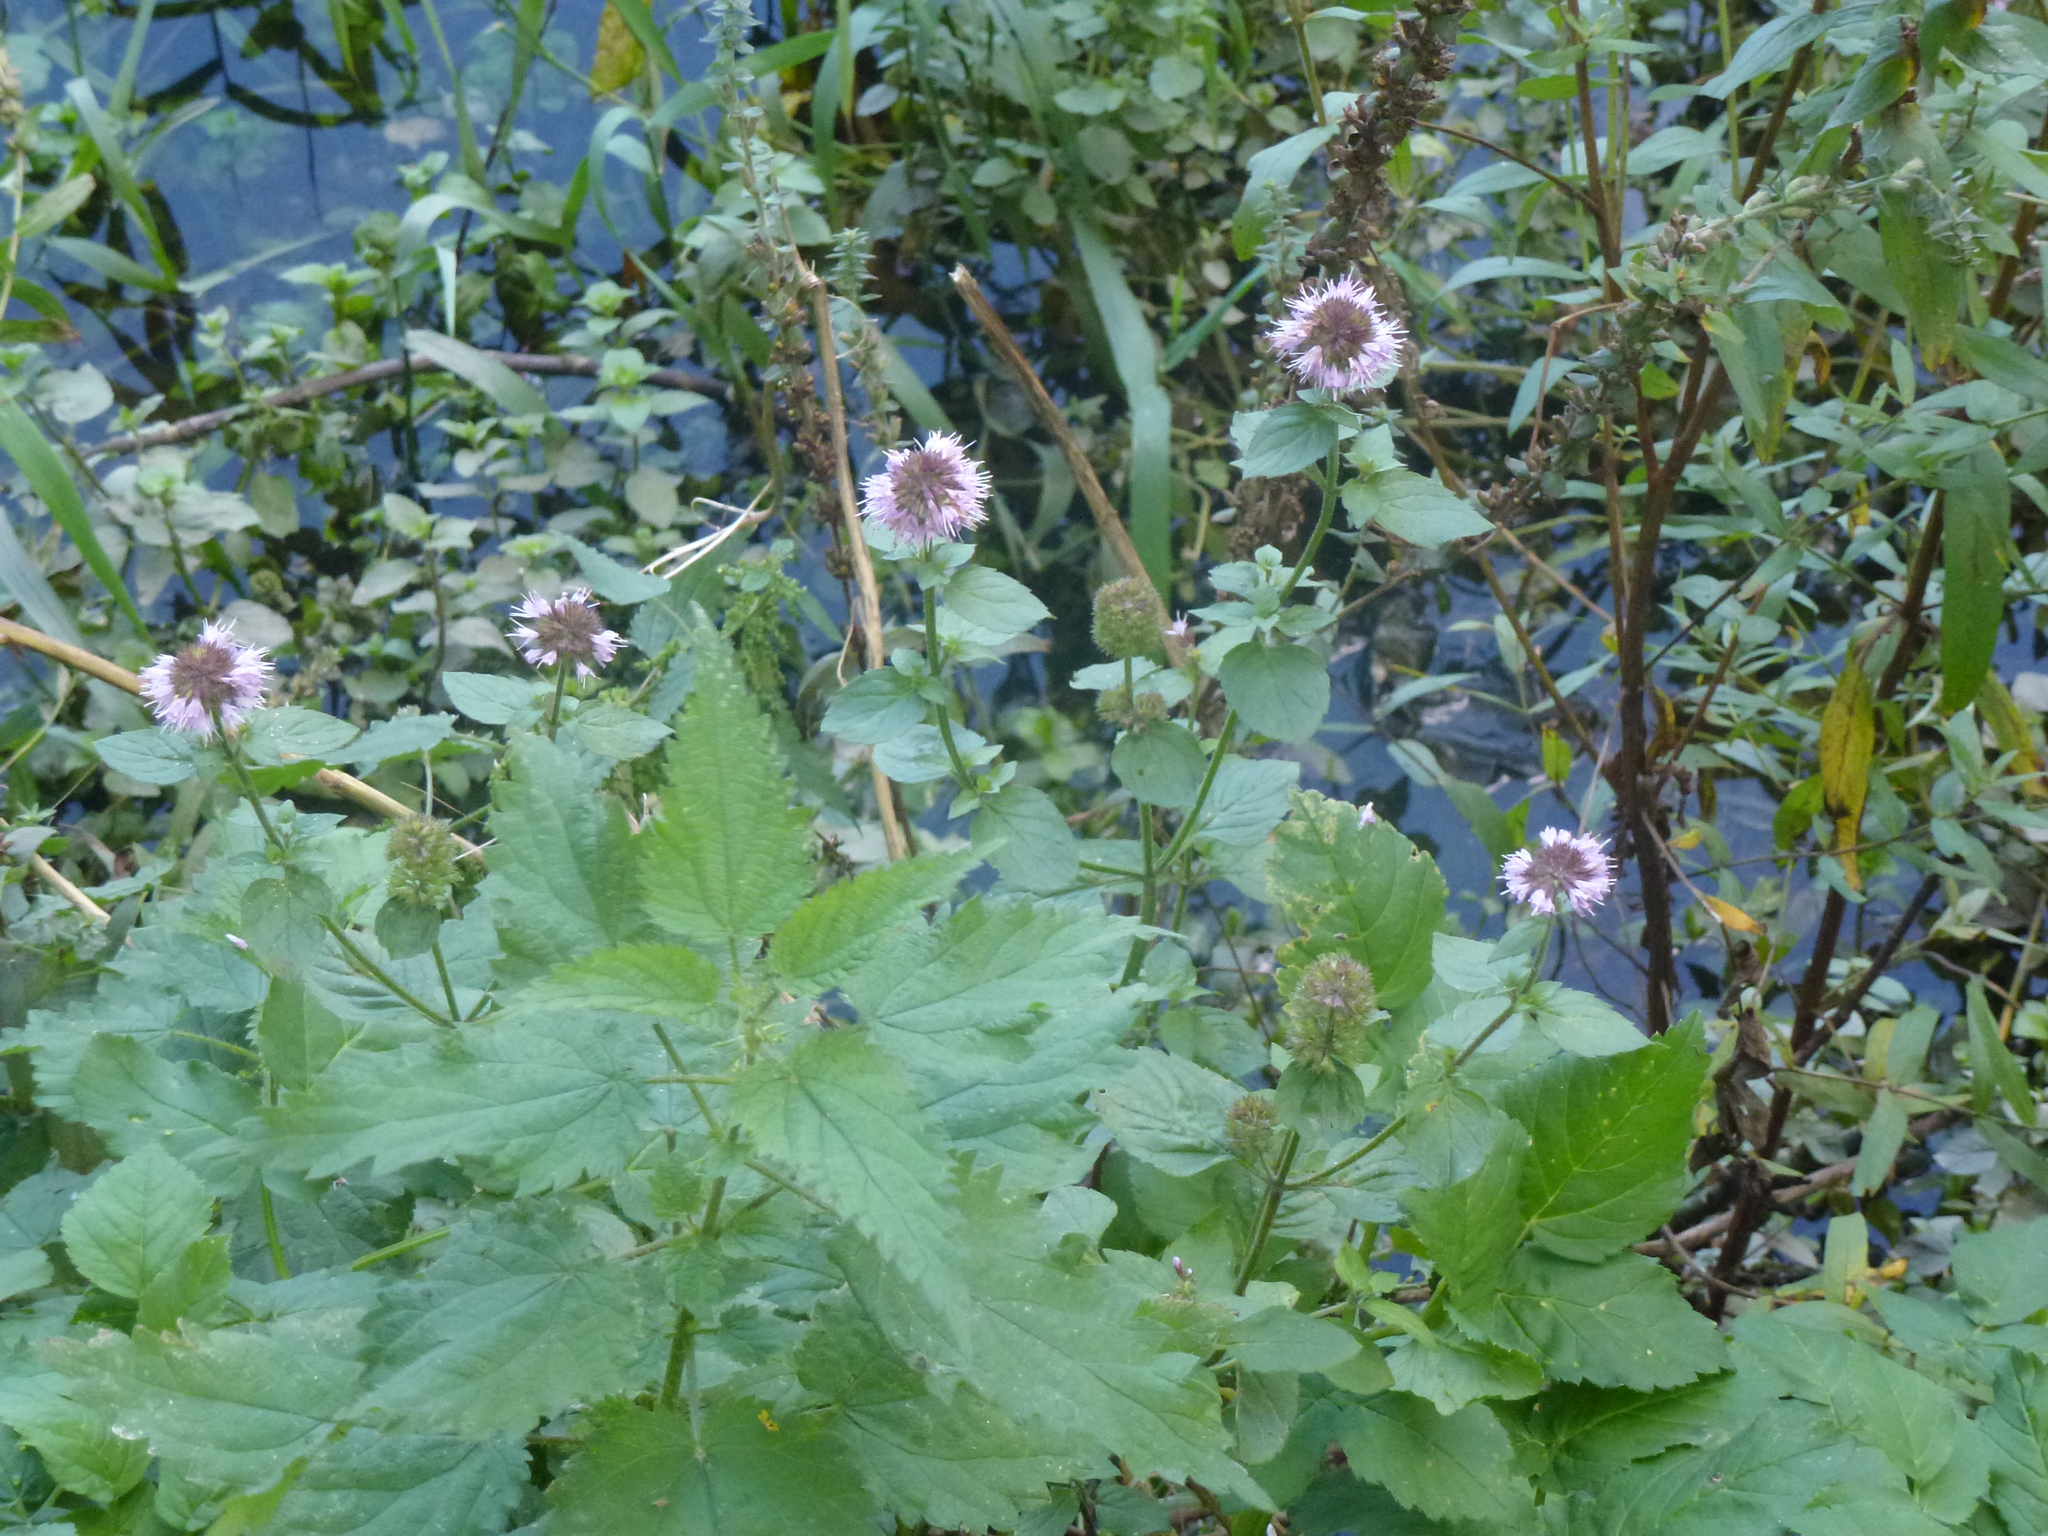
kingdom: Plantae
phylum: Tracheophyta
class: Magnoliopsida
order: Lamiales
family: Lamiaceae
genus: Mentha
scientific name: Mentha aquatica
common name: Water mint
